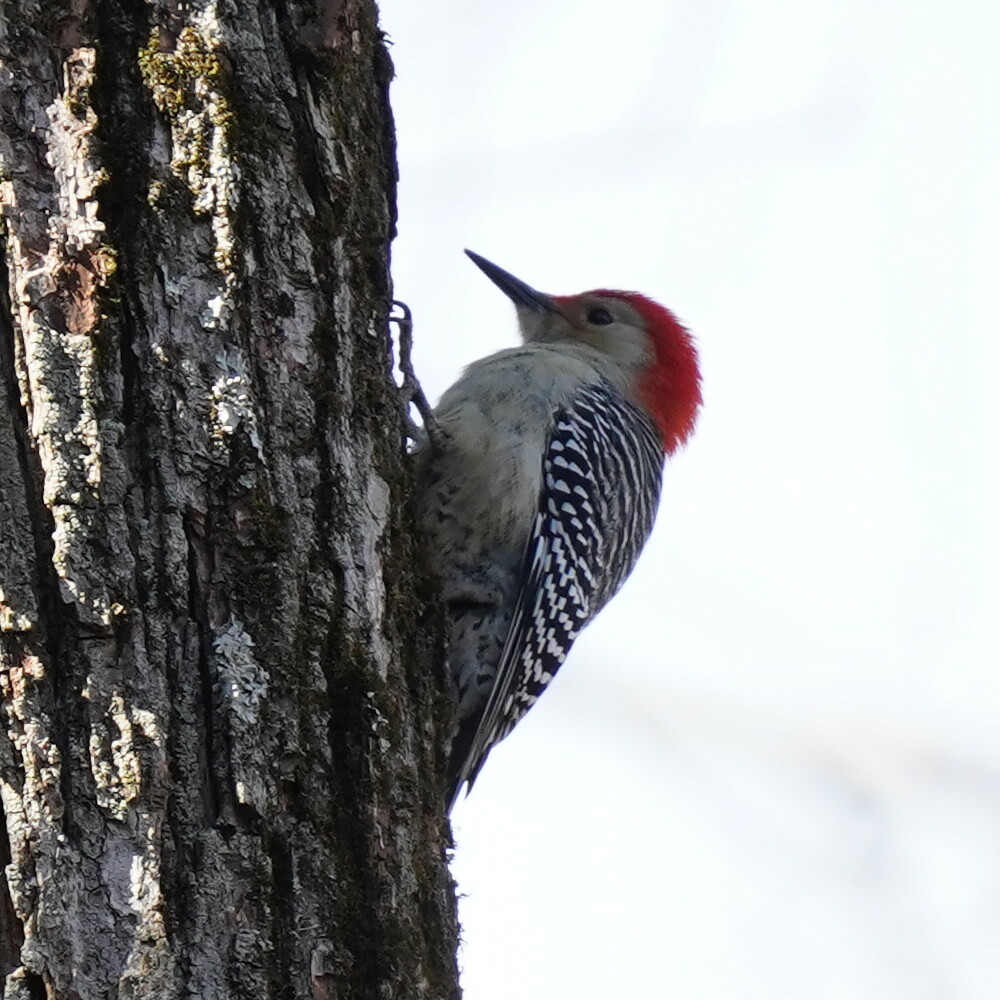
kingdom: Animalia
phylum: Chordata
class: Aves
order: Piciformes
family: Picidae
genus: Melanerpes
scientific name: Melanerpes carolinus
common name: Red-bellied woodpecker
